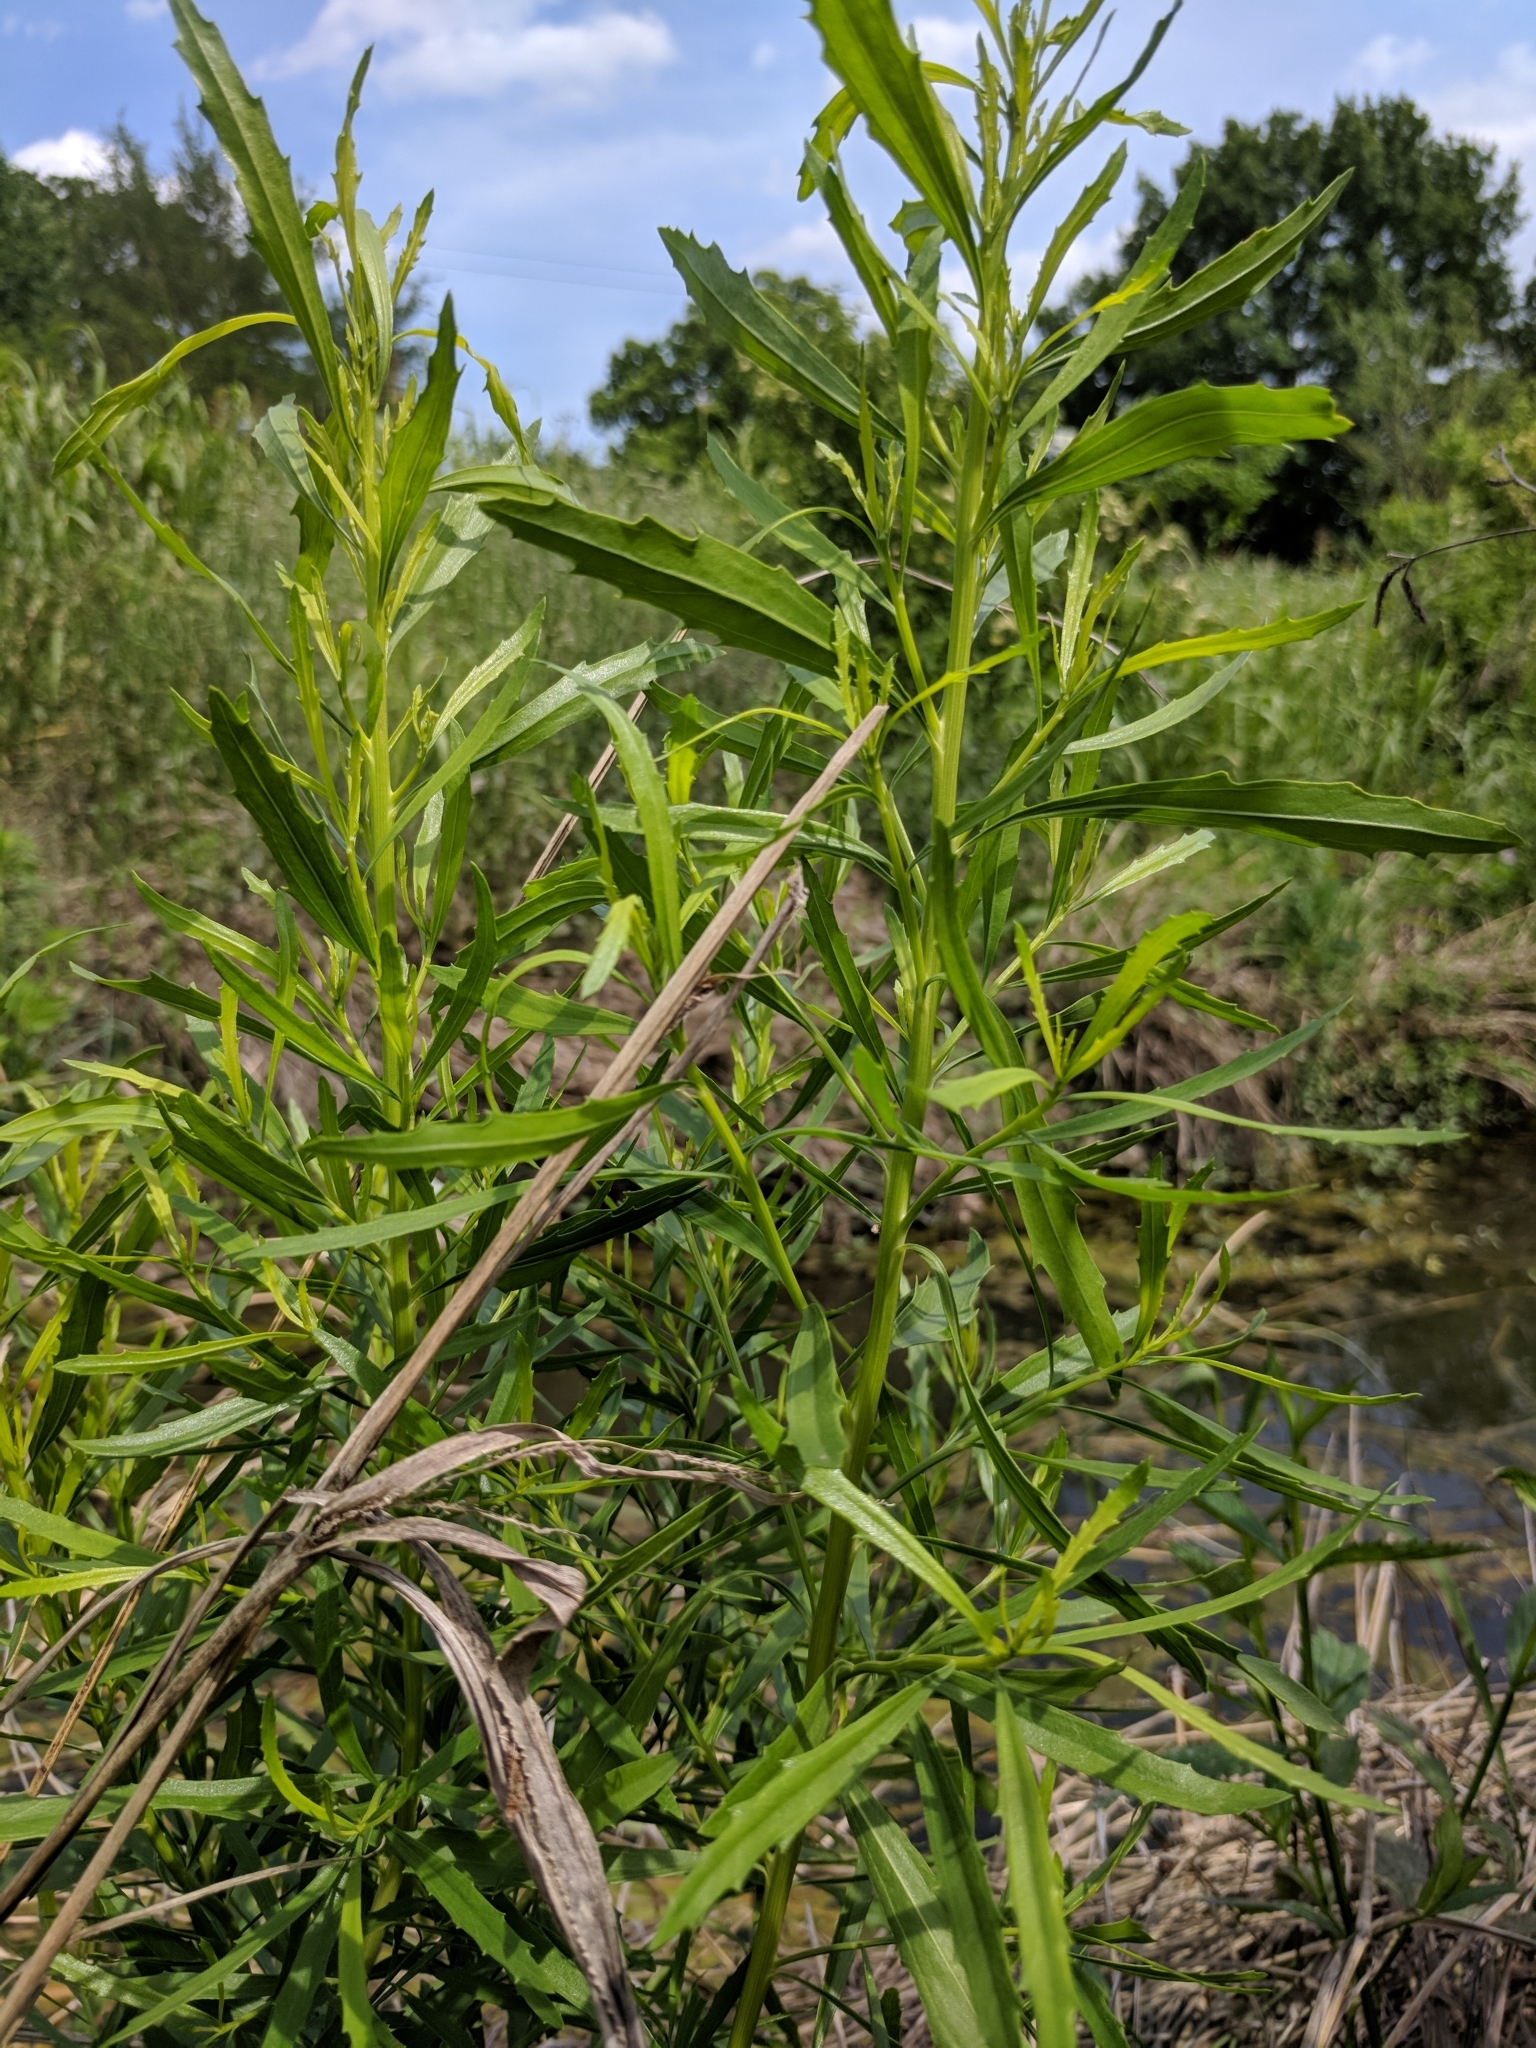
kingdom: Plantae
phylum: Tracheophyta
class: Magnoliopsida
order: Asterales
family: Asteraceae
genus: Baccharis
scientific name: Baccharis neglecta
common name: Roosevelt-weed
